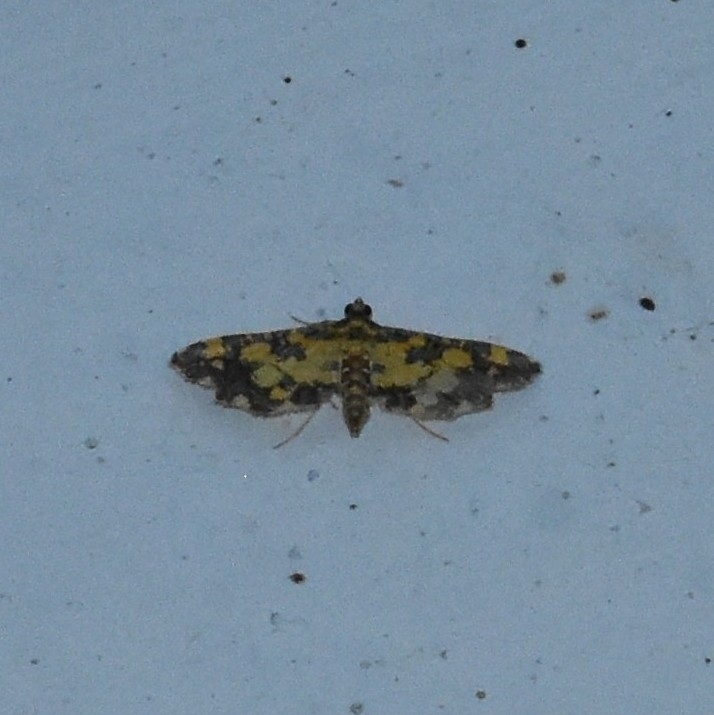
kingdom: Animalia
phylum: Arthropoda
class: Insecta
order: Lepidoptera
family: Crambidae
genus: Eurrhyparodes
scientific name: Eurrhyparodes tricoloralis
